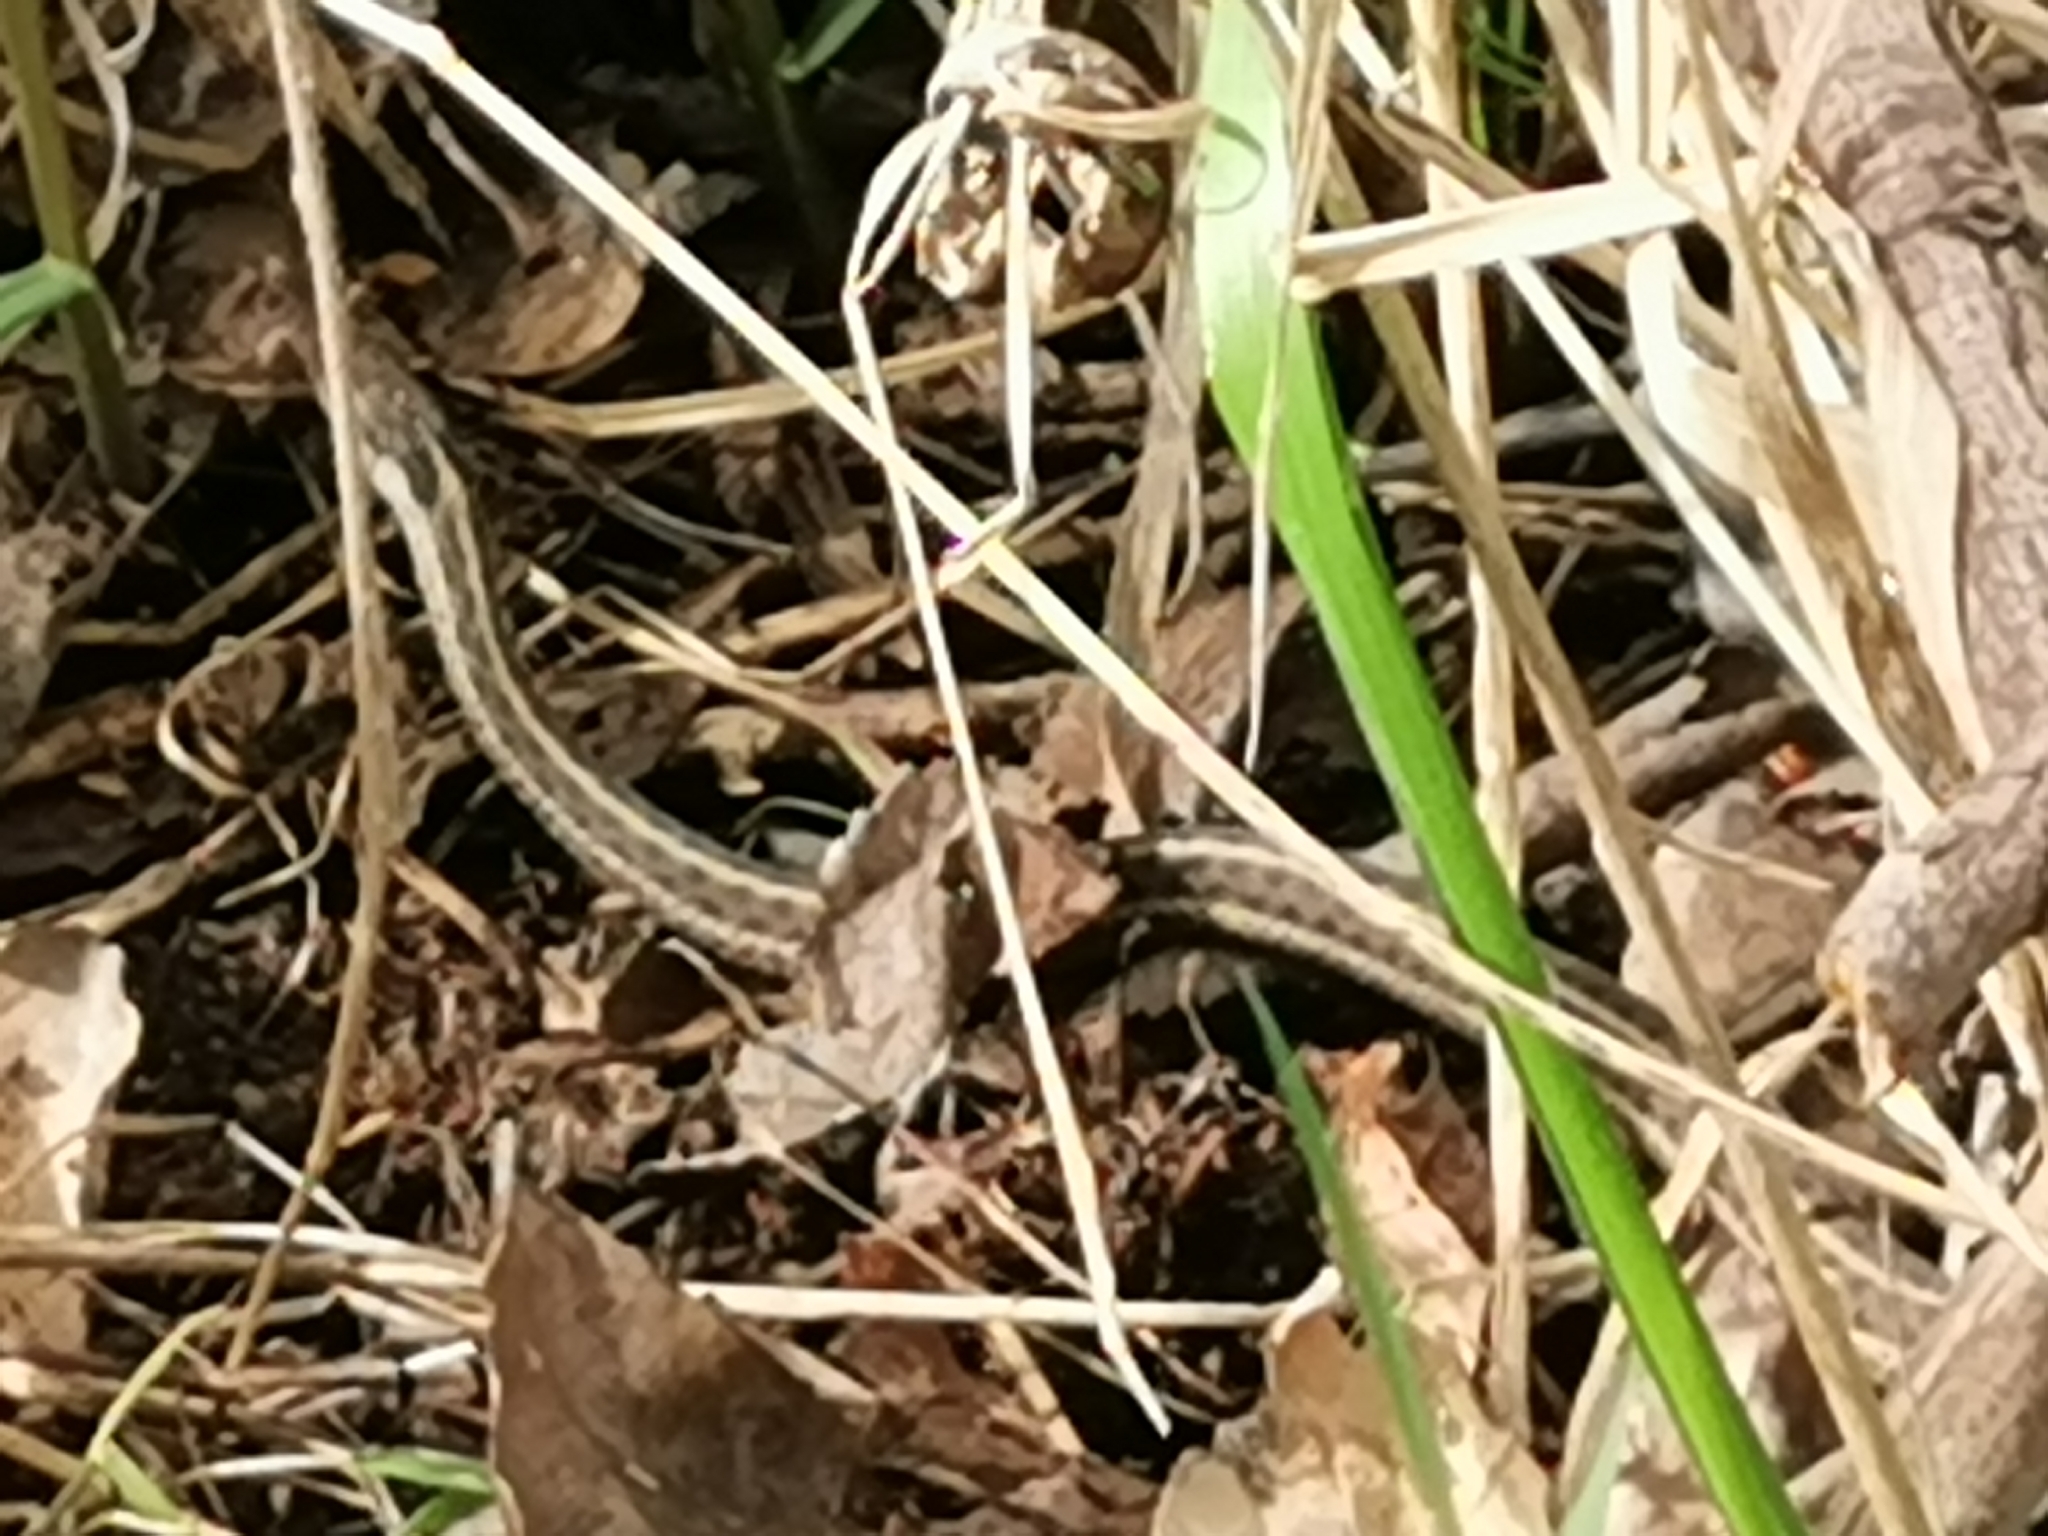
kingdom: Animalia
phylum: Chordata
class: Squamata
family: Colubridae
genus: Thamnophis
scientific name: Thamnophis elegans
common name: Western terrestrial garter snake
